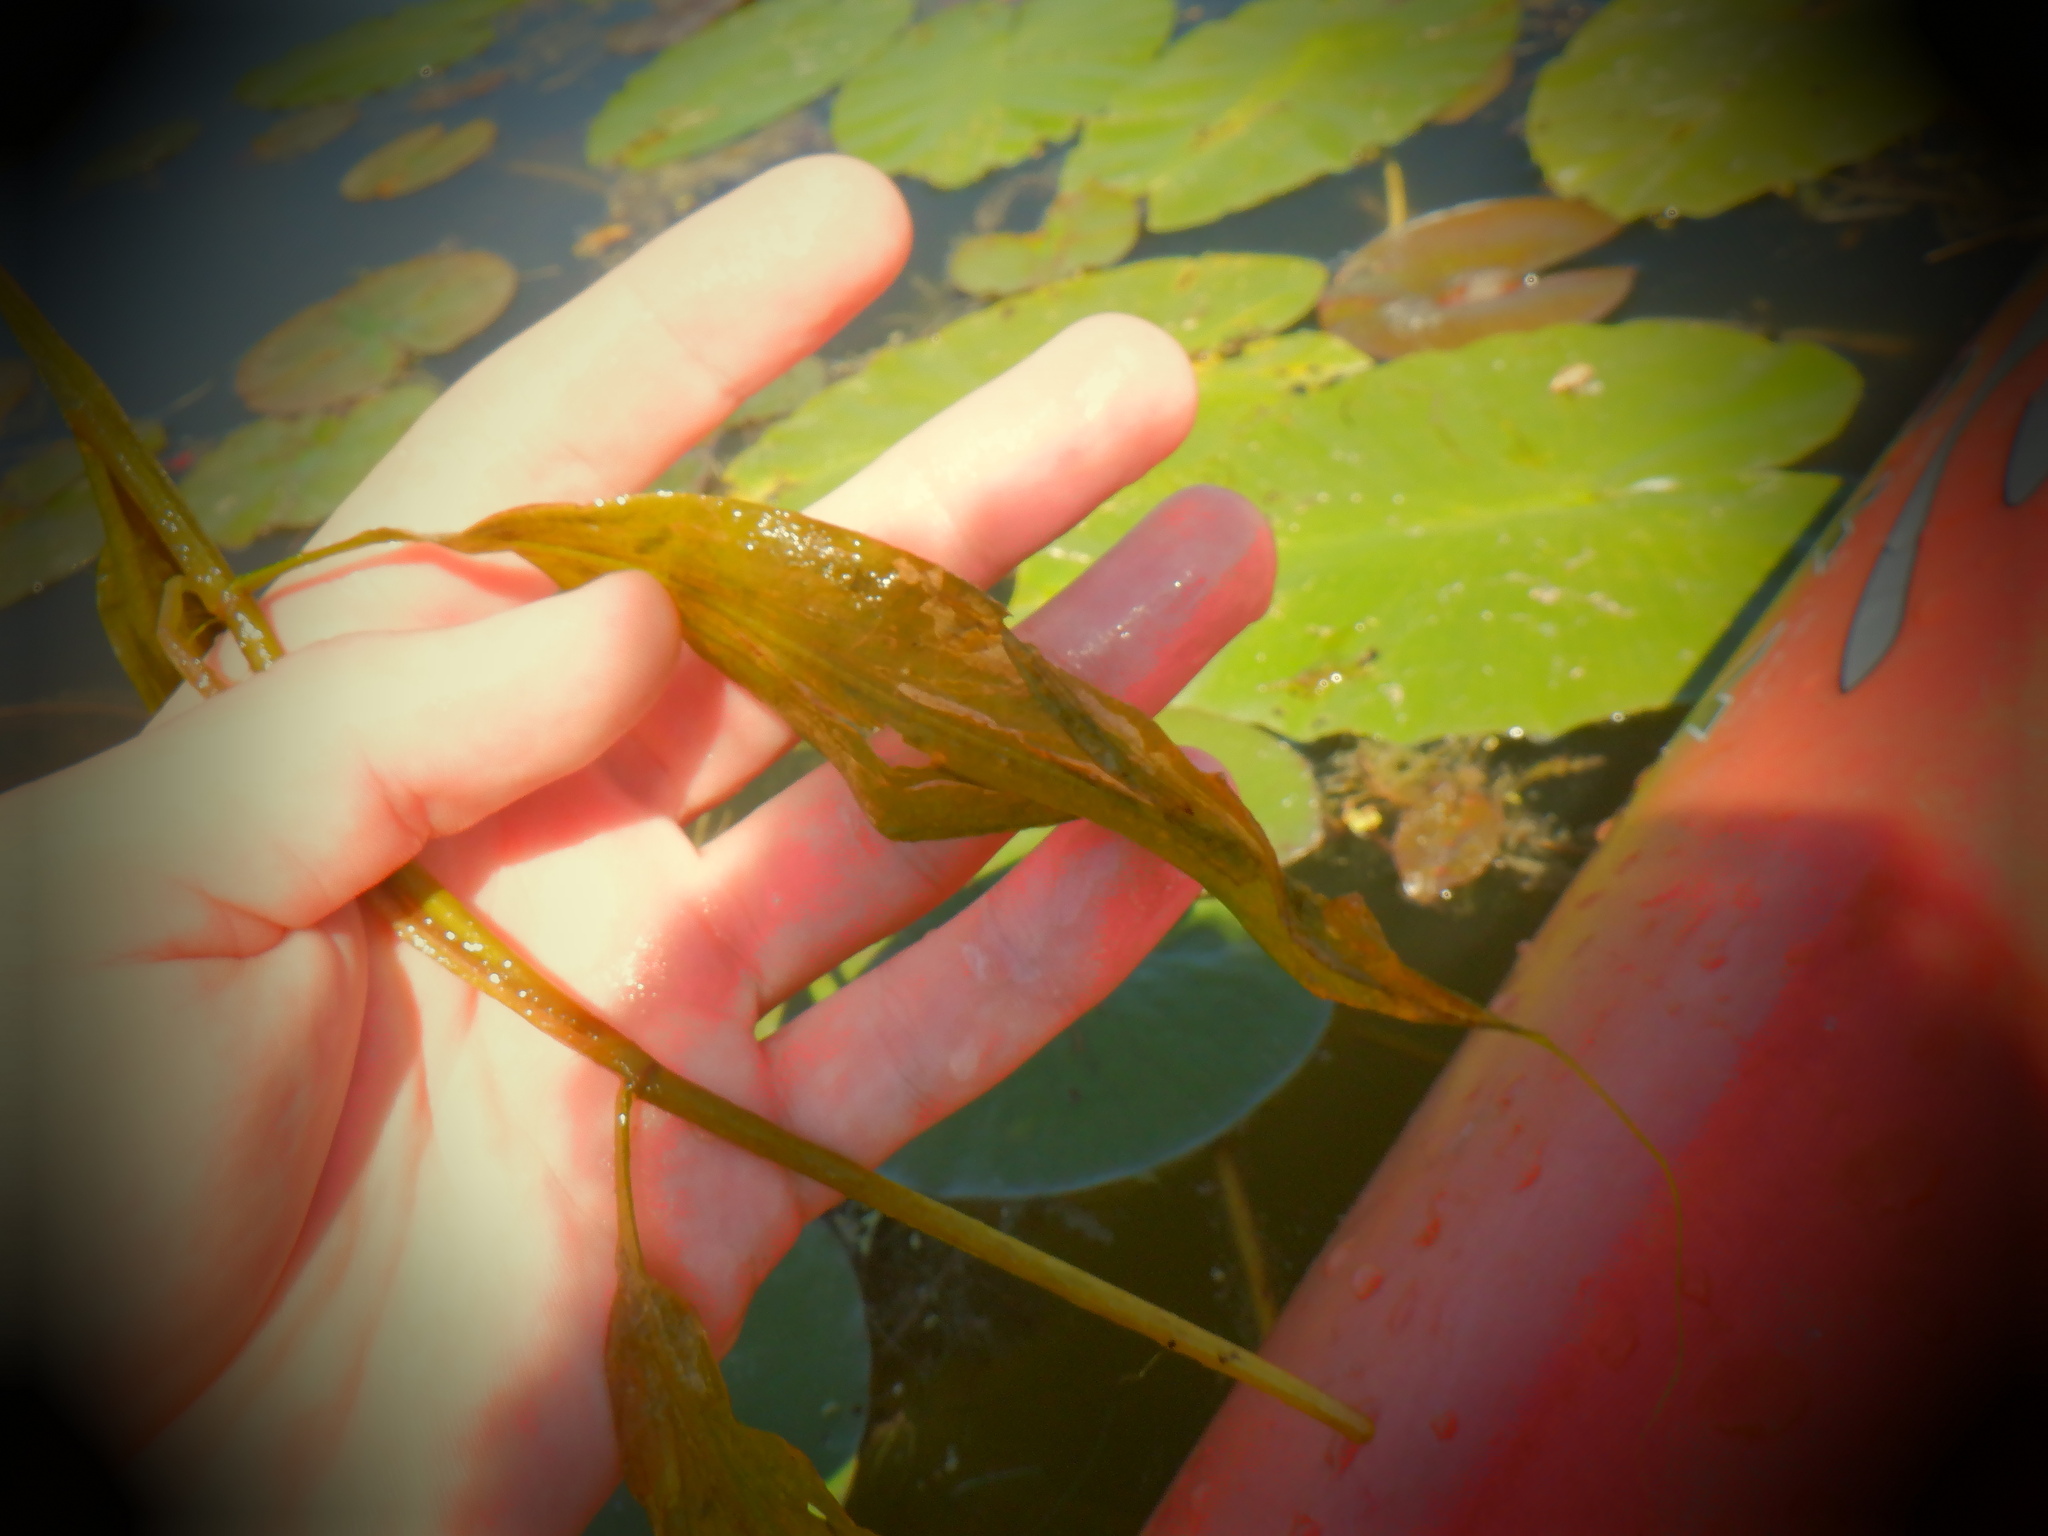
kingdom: Plantae
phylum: Tracheophyta
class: Liliopsida
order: Alismatales
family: Potamogetonaceae
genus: Potamogeton
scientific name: Potamogeton amplifolius
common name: Broad-leaved pondweed
